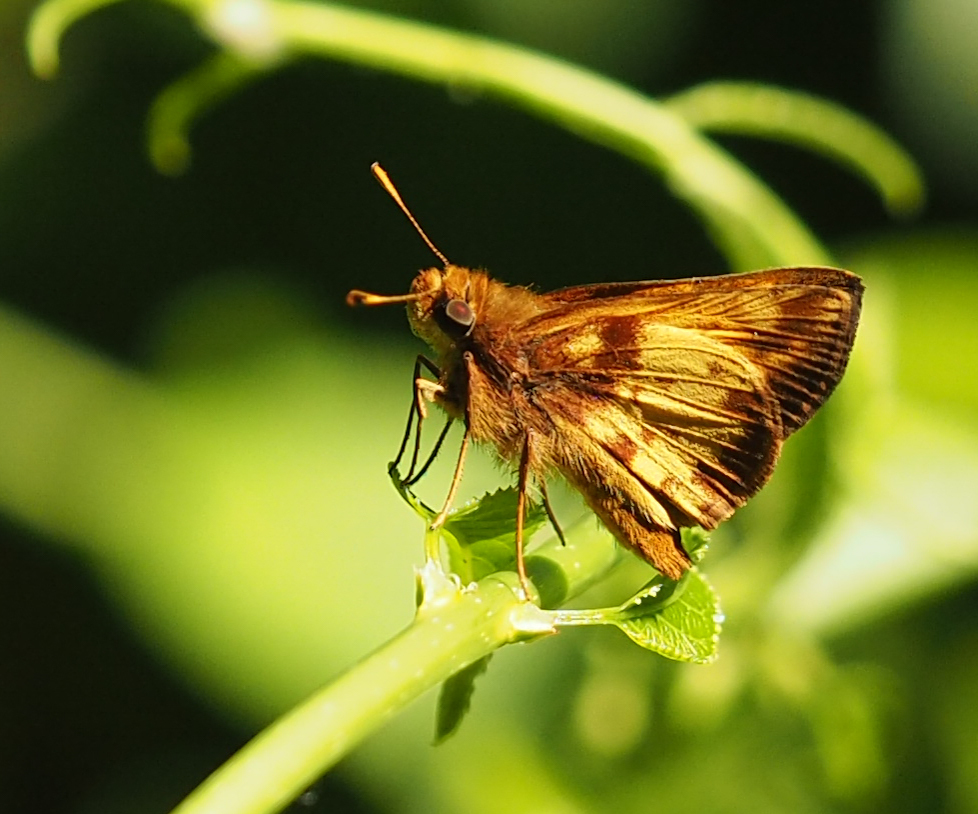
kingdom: Animalia
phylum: Arthropoda
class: Insecta
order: Lepidoptera
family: Hesperiidae
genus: Lon
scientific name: Lon zabulon
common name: Zabulon skipper
